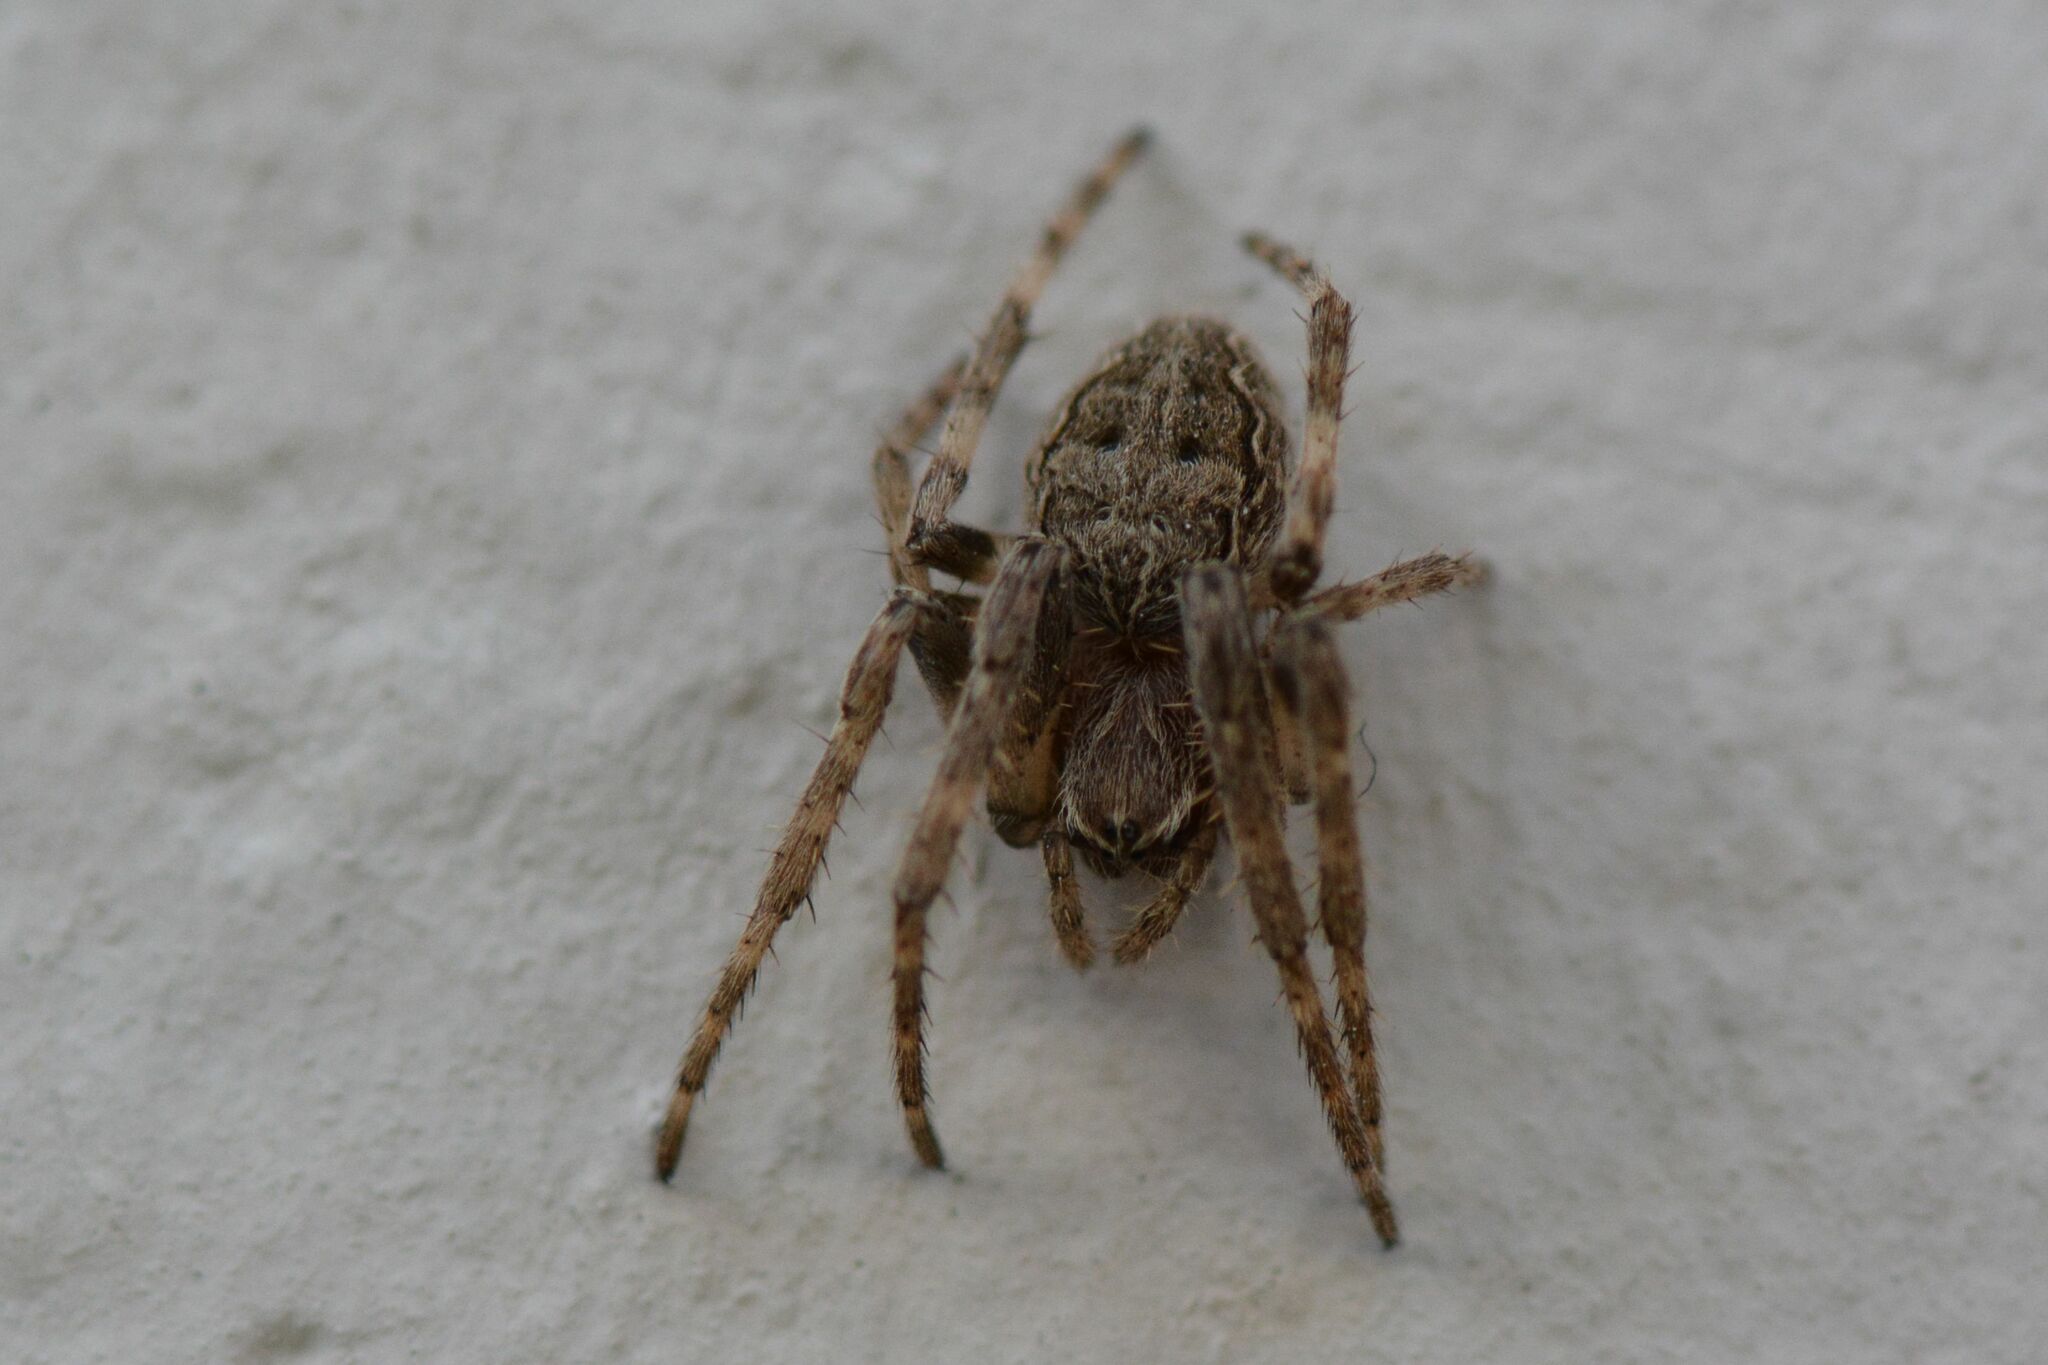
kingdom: Animalia
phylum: Arthropoda
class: Arachnida
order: Araneae
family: Araneidae
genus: Larinioides
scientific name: Larinioides sclopetarius
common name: Bridge orbweaver
